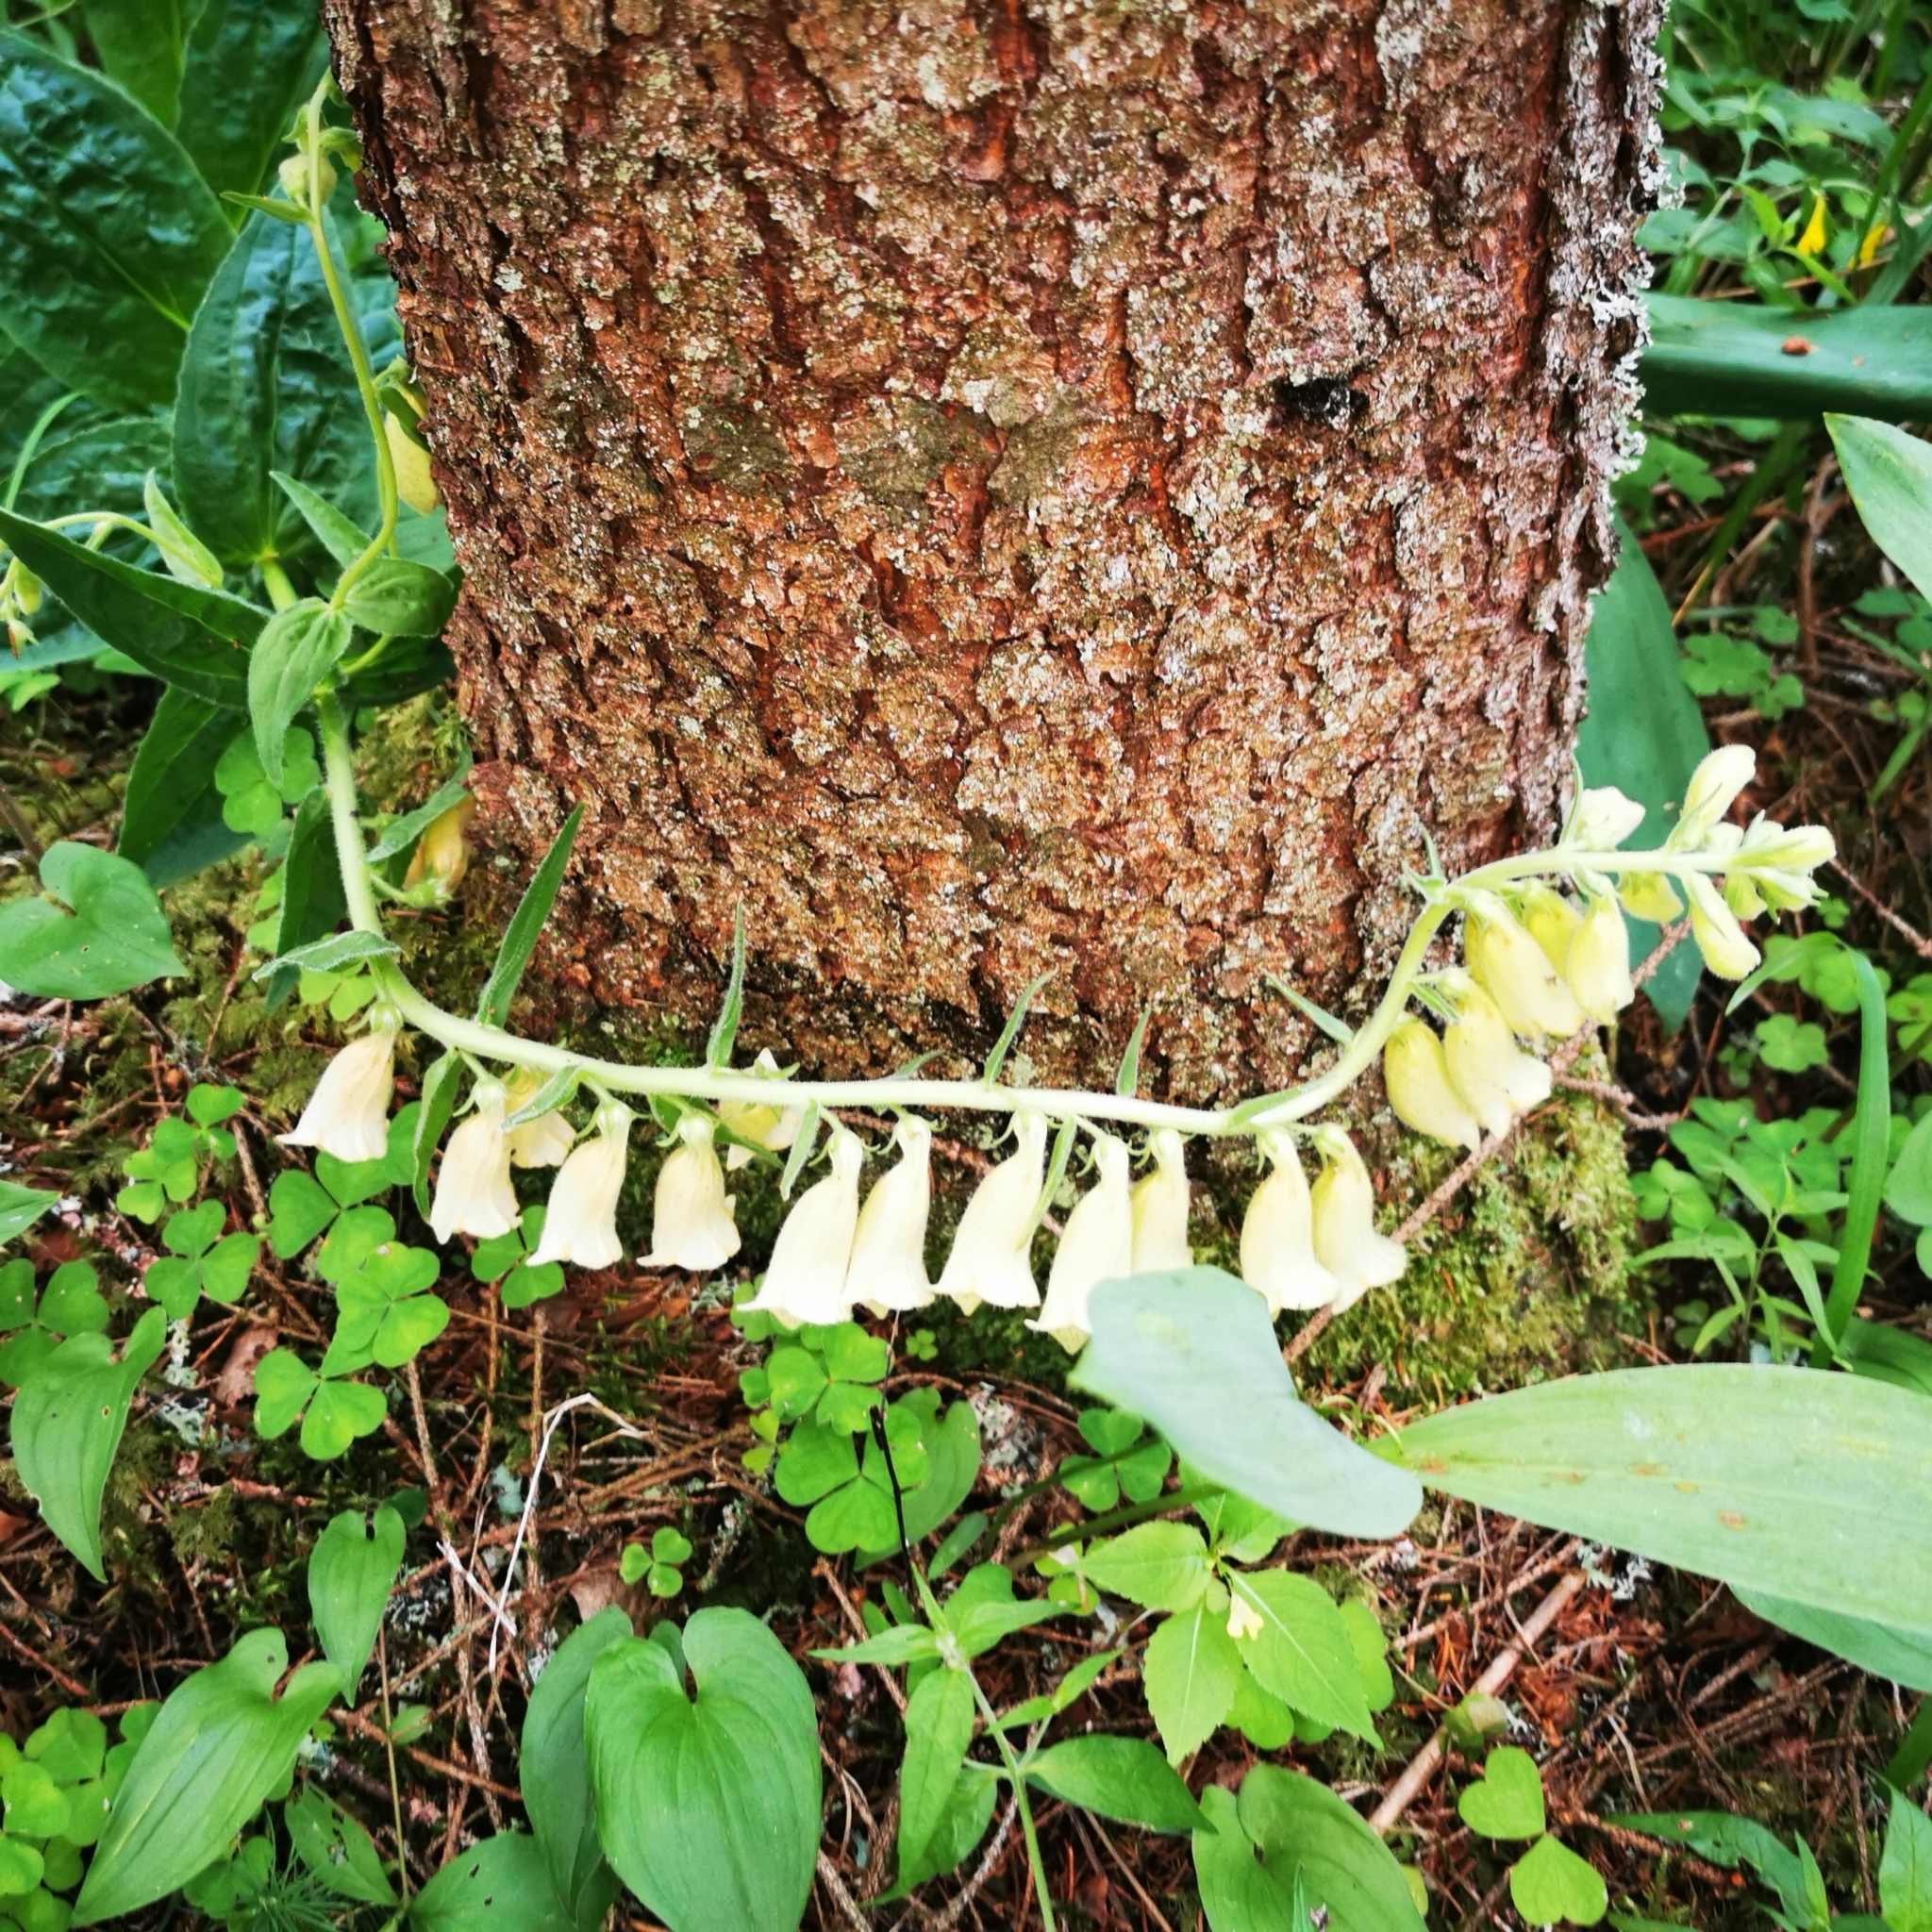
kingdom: Plantae
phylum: Tracheophyta
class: Magnoliopsida
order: Lamiales
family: Plantaginaceae
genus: Digitalis
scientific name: Digitalis grandiflora
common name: Yellow foxglove
